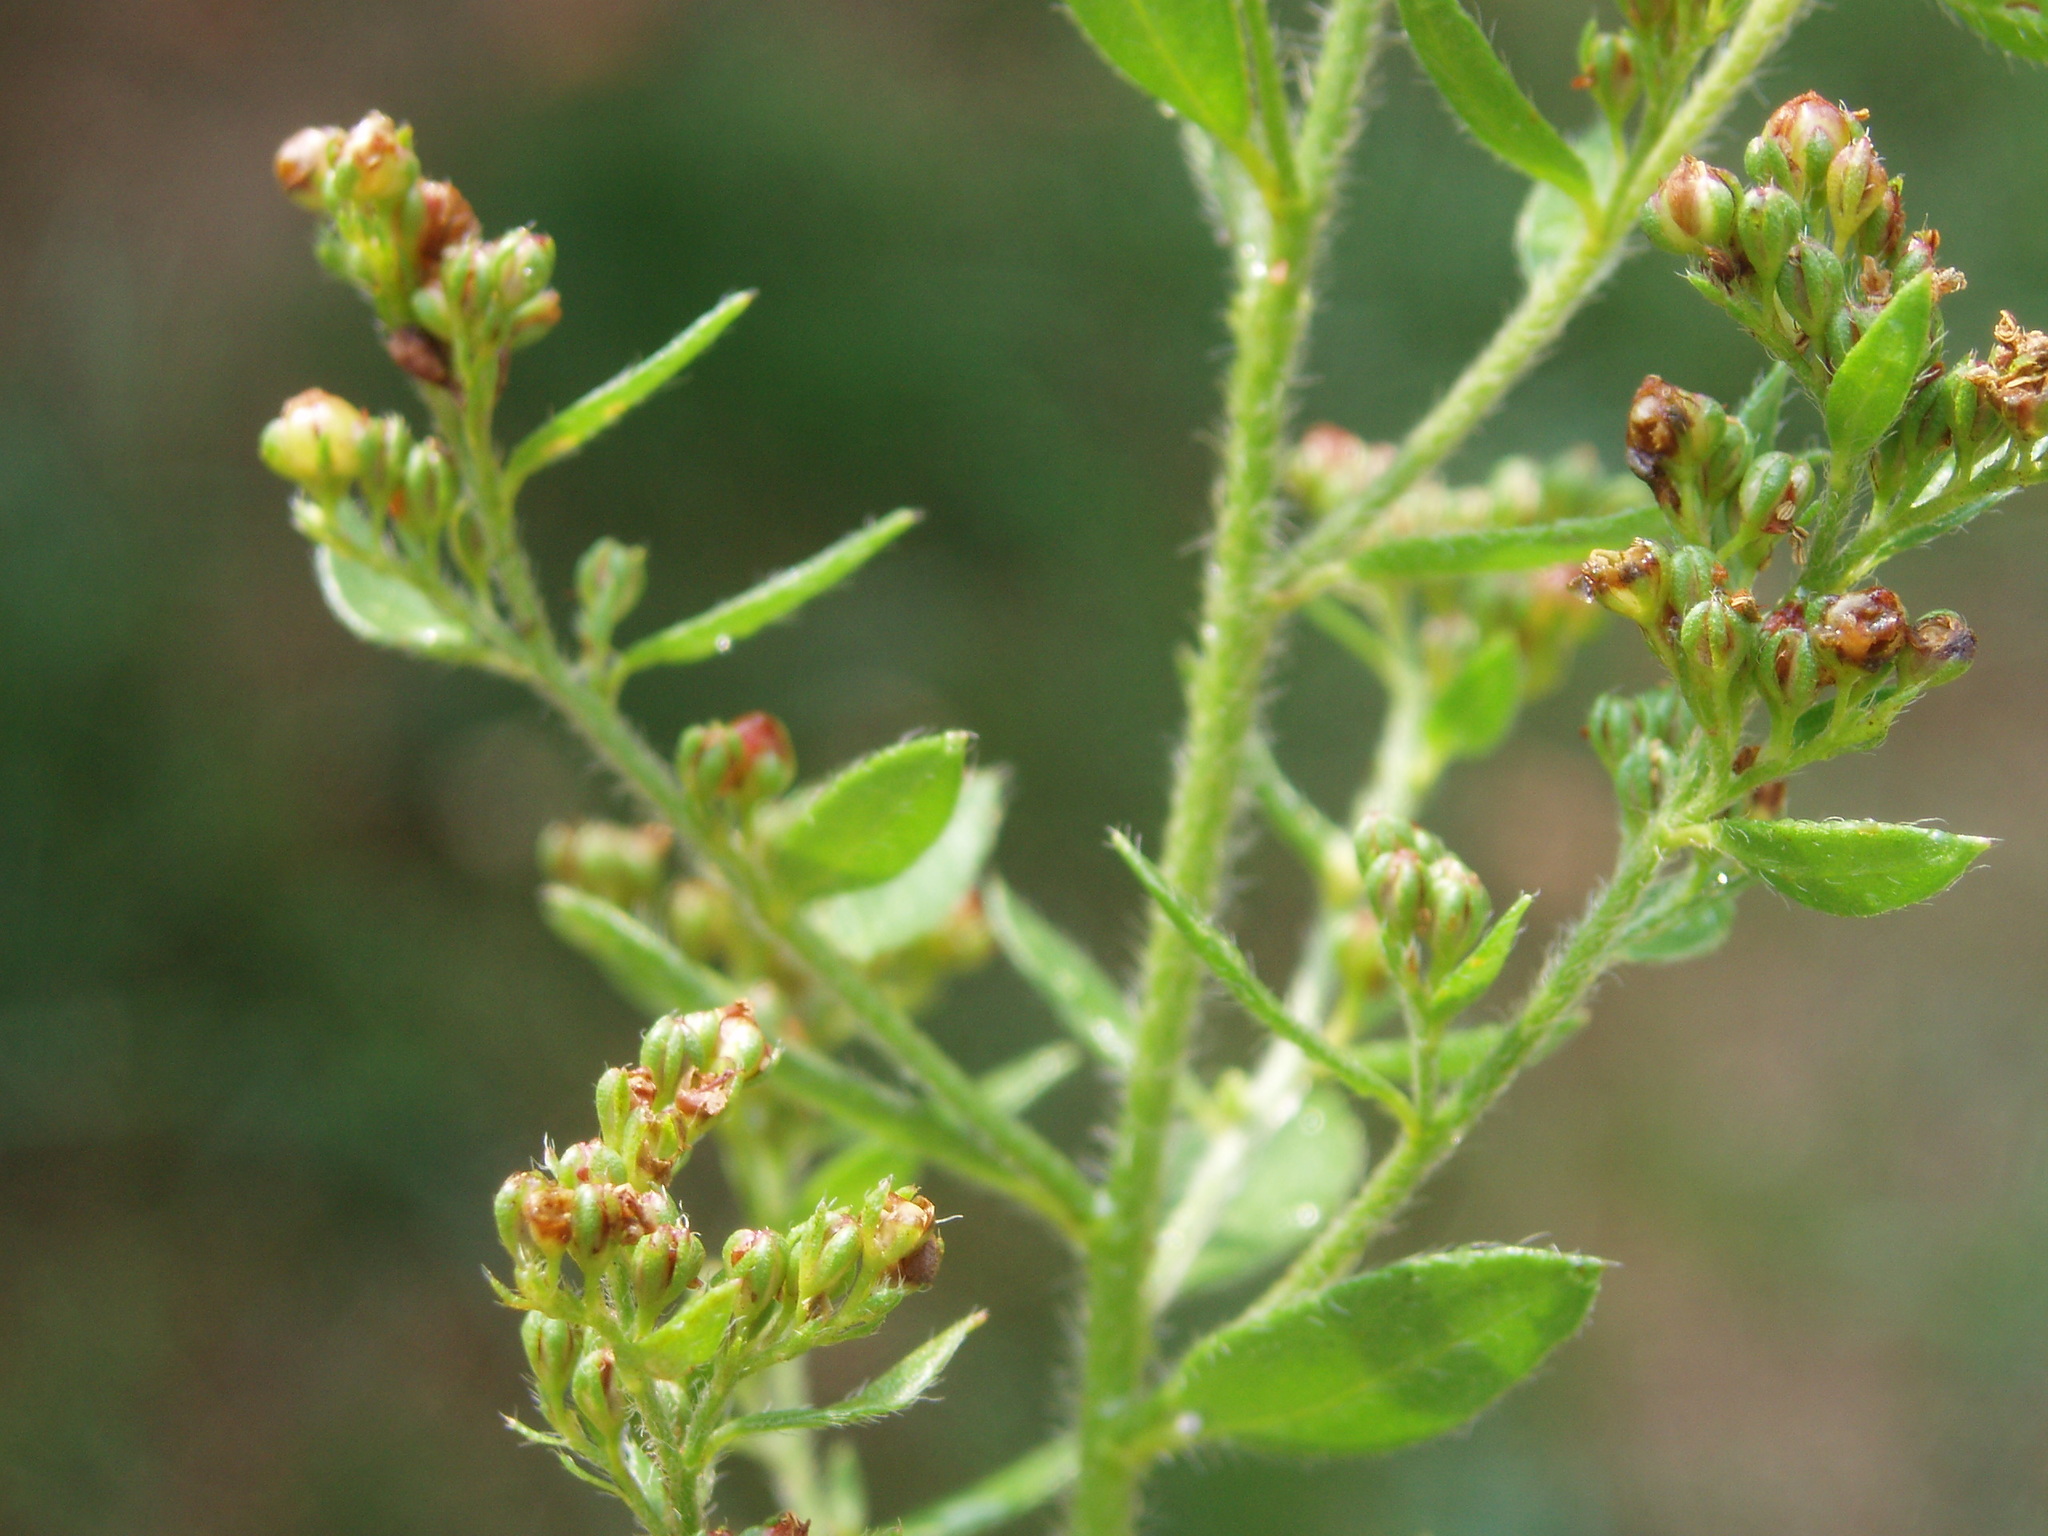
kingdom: Plantae
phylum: Tracheophyta
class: Magnoliopsida
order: Malvales
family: Cistaceae
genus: Lechea
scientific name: Lechea mucronata
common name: Hairy pinweed
